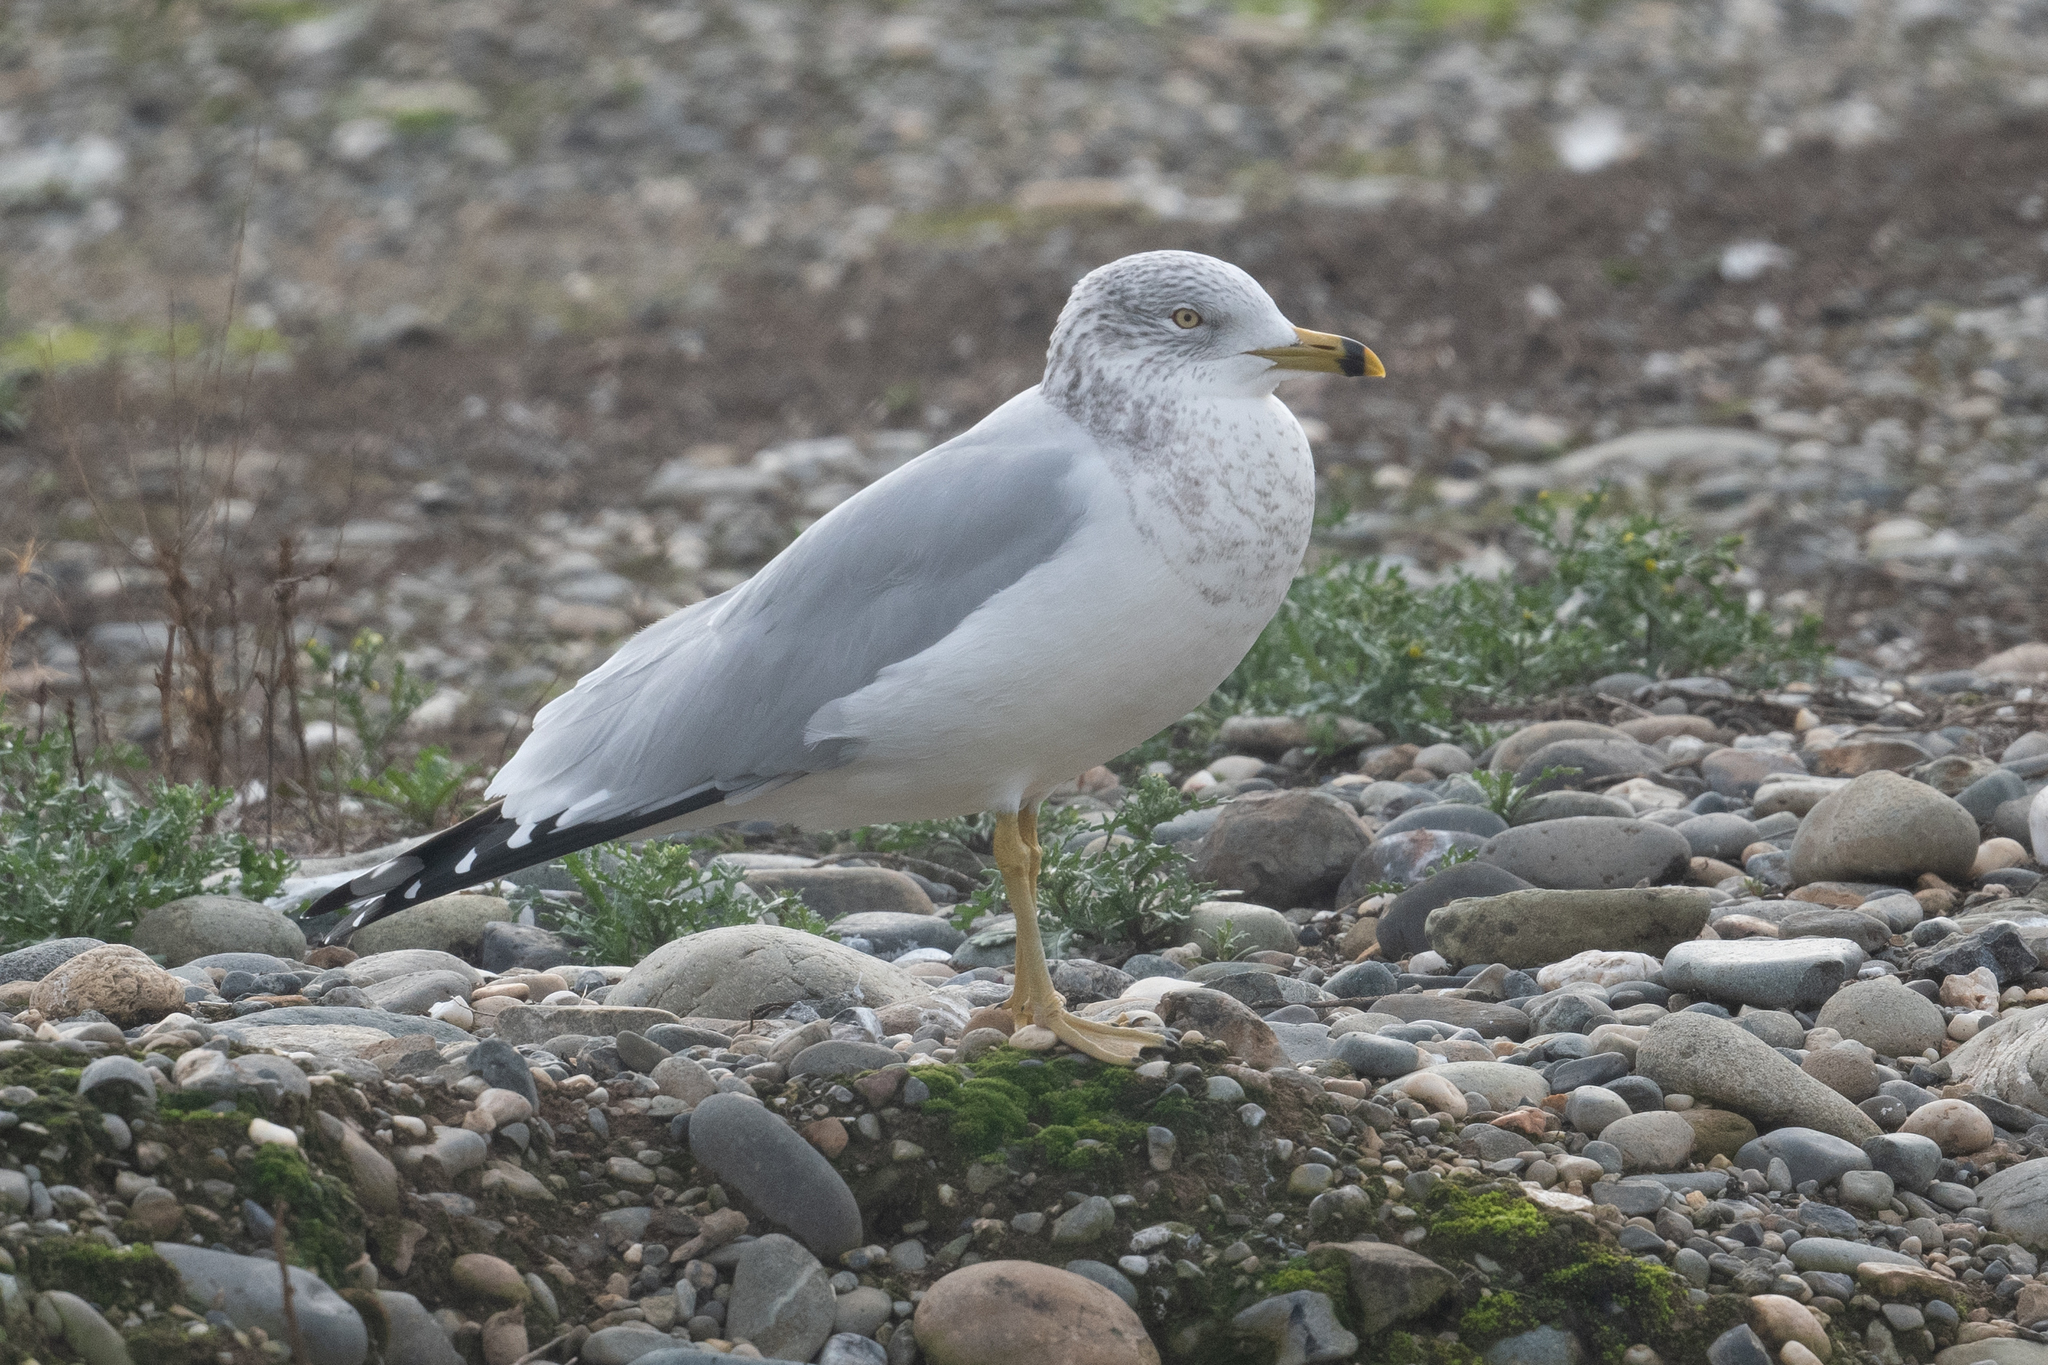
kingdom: Animalia
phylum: Chordata
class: Aves
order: Charadriiformes
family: Laridae
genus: Larus
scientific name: Larus delawarensis
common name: Ring-billed gull
